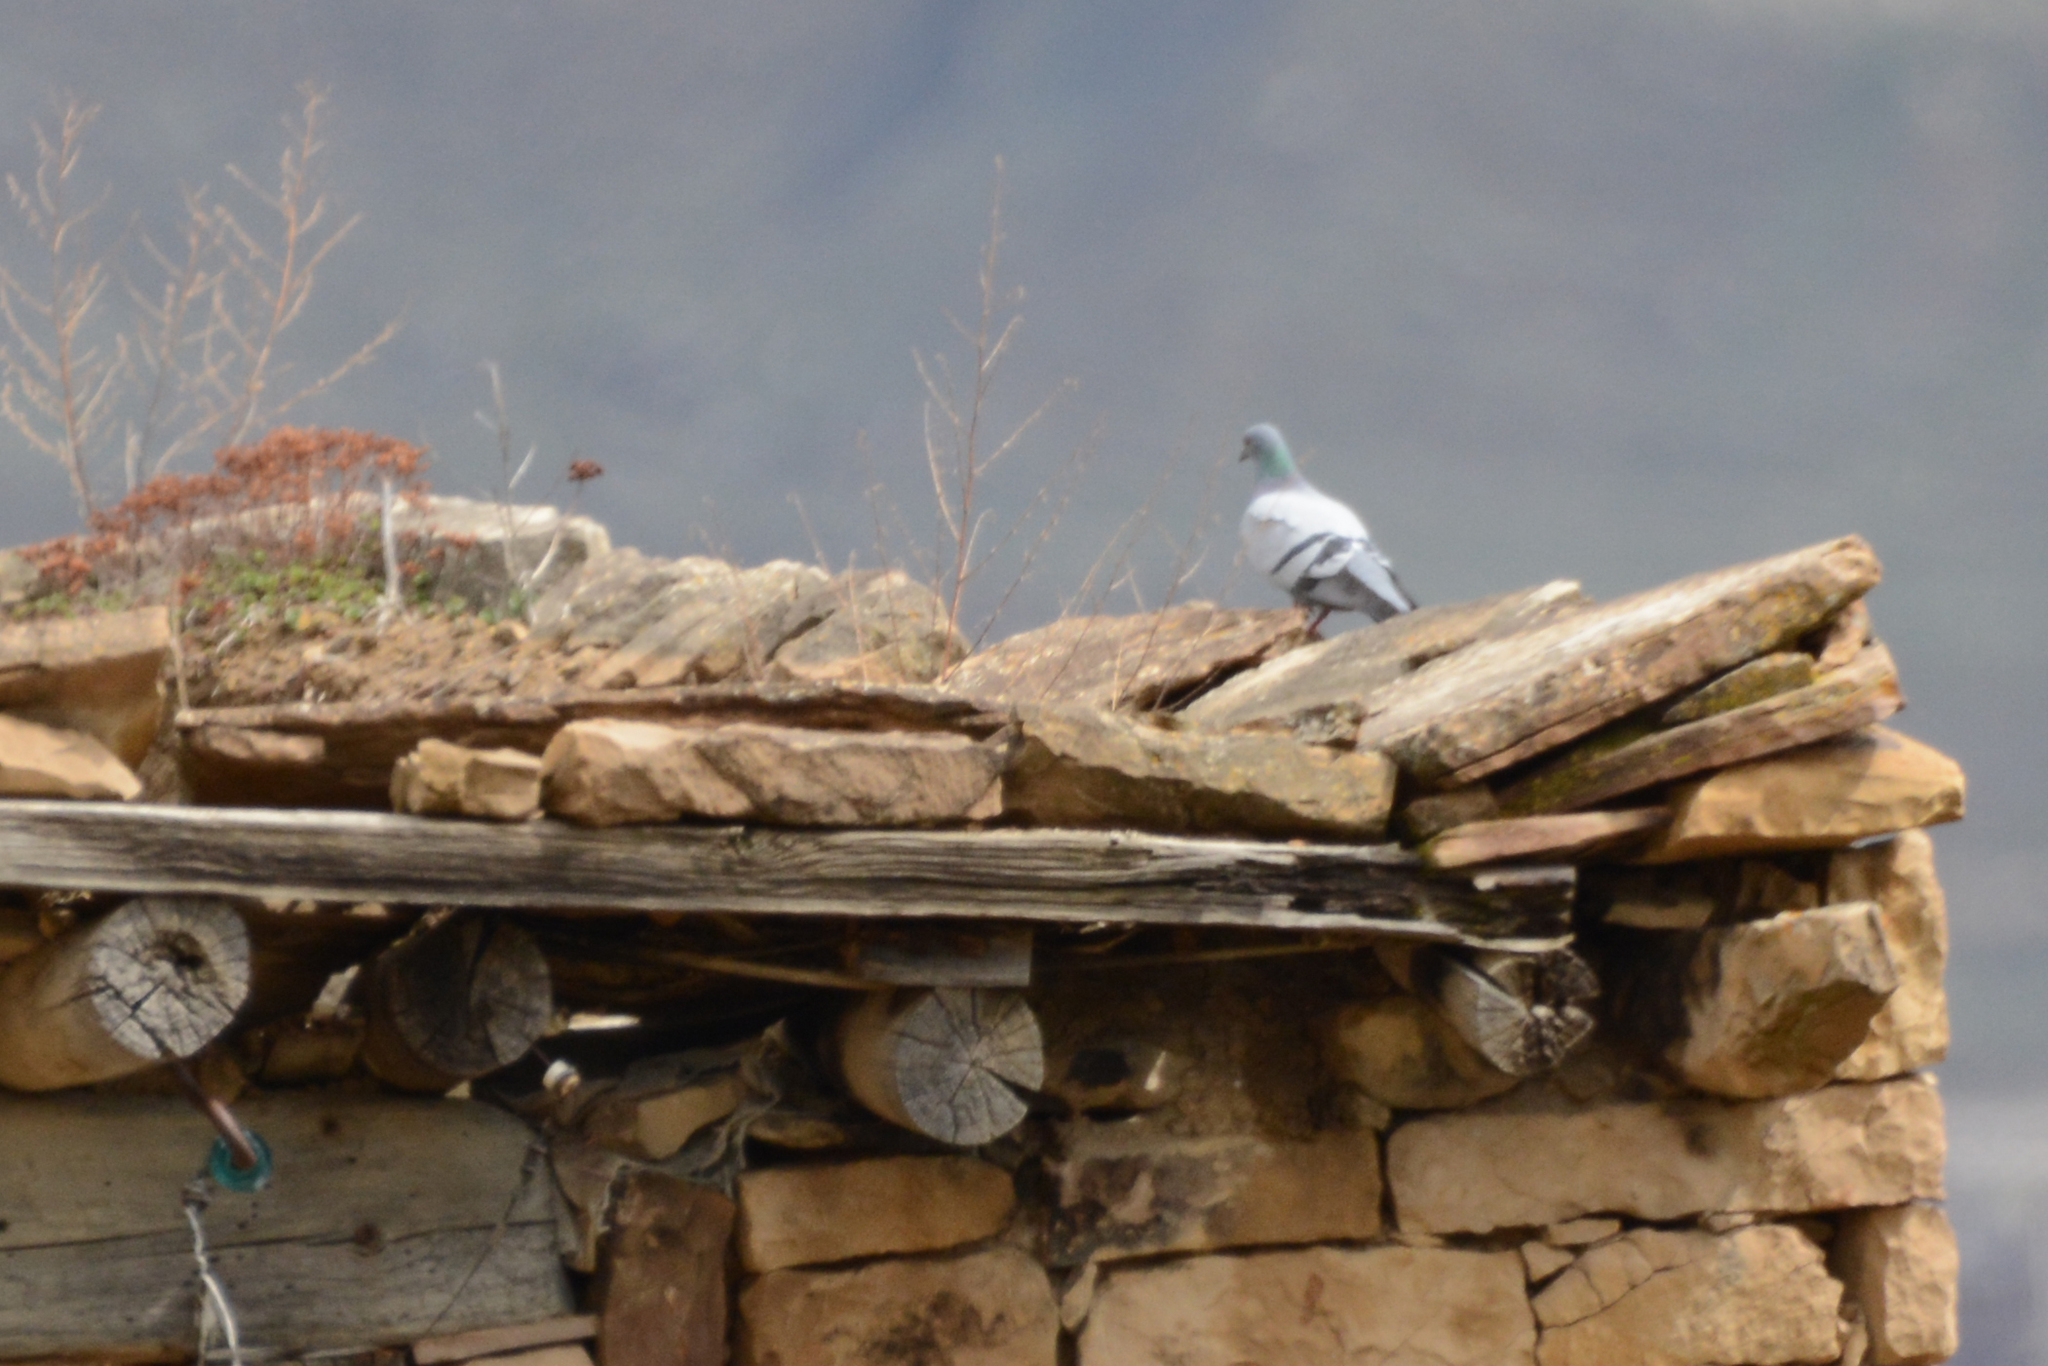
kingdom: Animalia
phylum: Chordata
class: Aves
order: Columbiformes
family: Columbidae
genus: Columba
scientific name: Columba livia
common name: Rock pigeon
